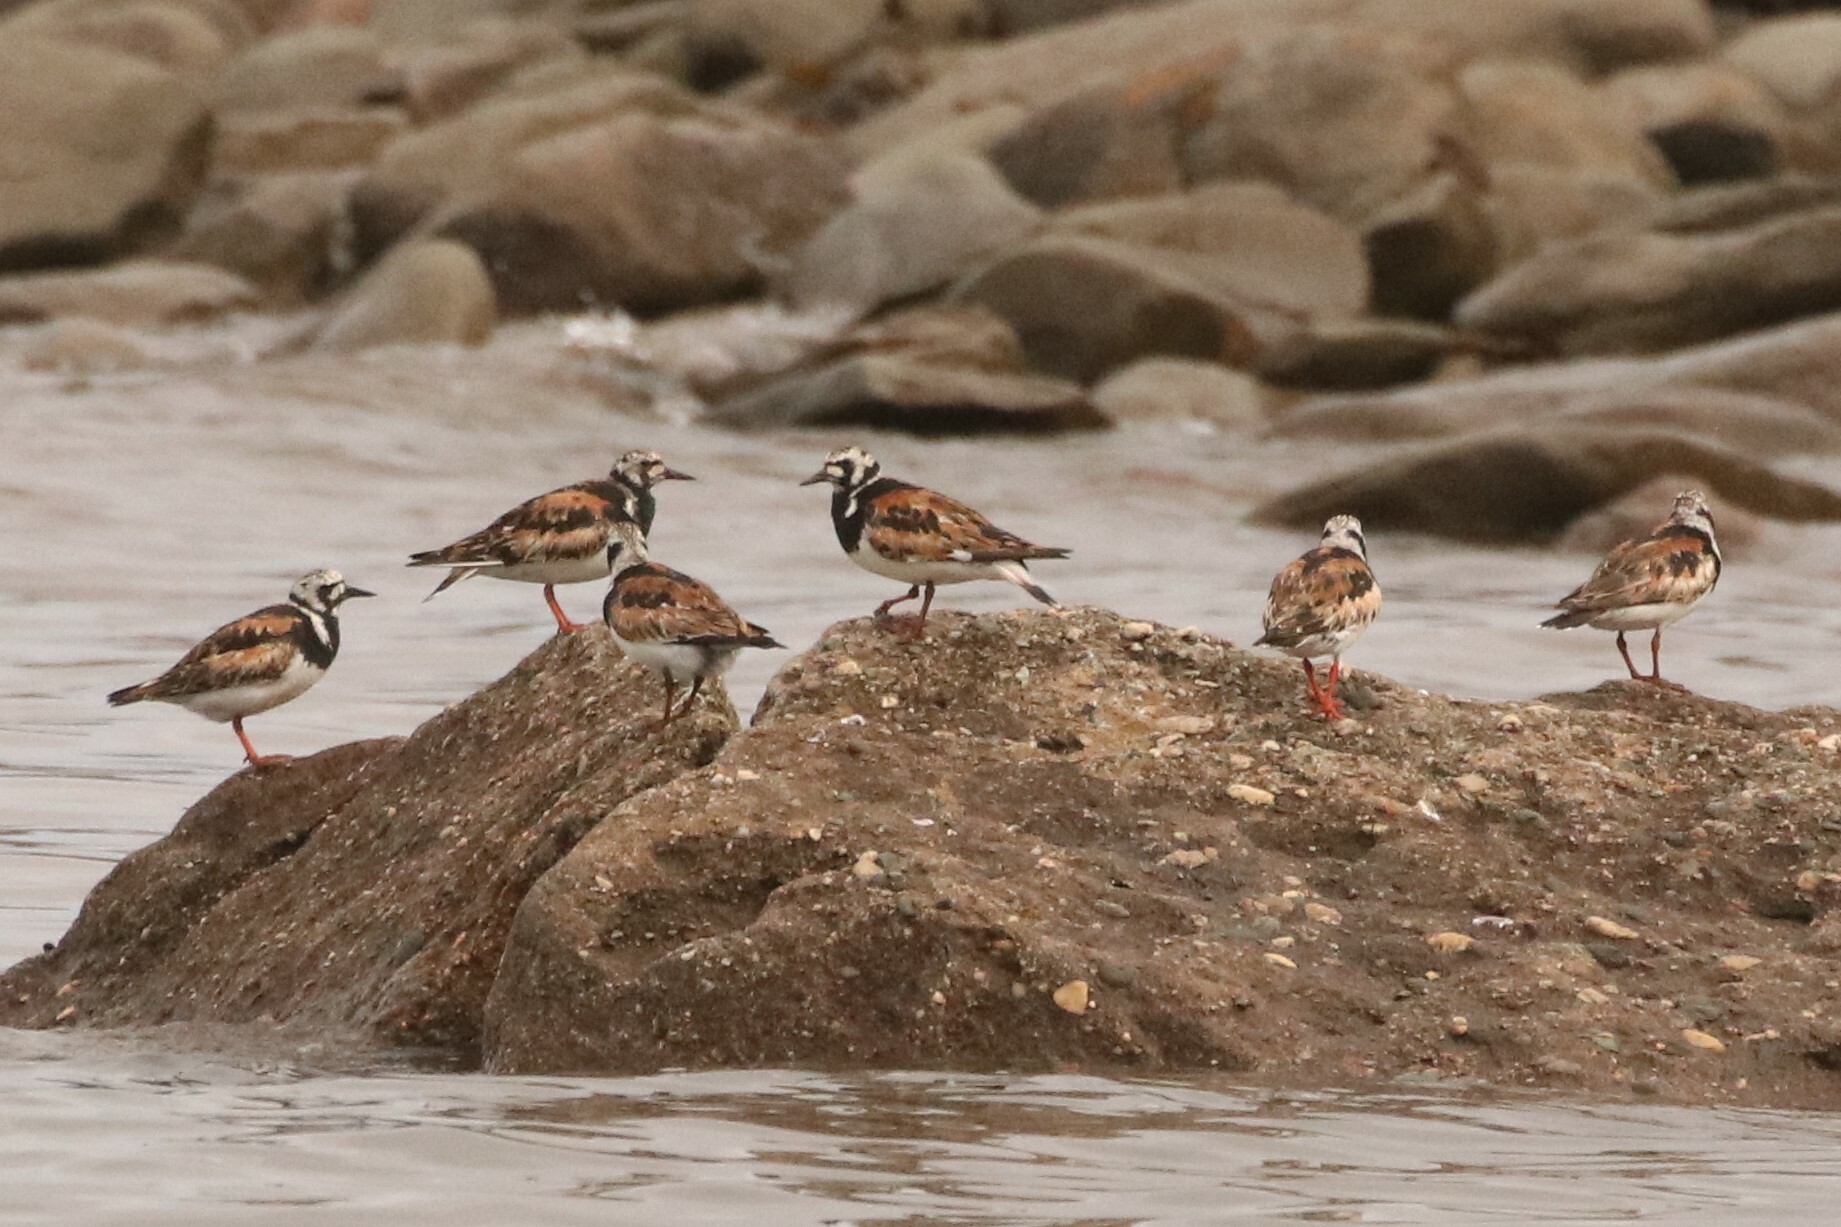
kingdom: Animalia
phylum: Chordata
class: Aves
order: Charadriiformes
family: Scolopacidae
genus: Arenaria
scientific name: Arenaria interpres
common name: Ruddy turnstone
